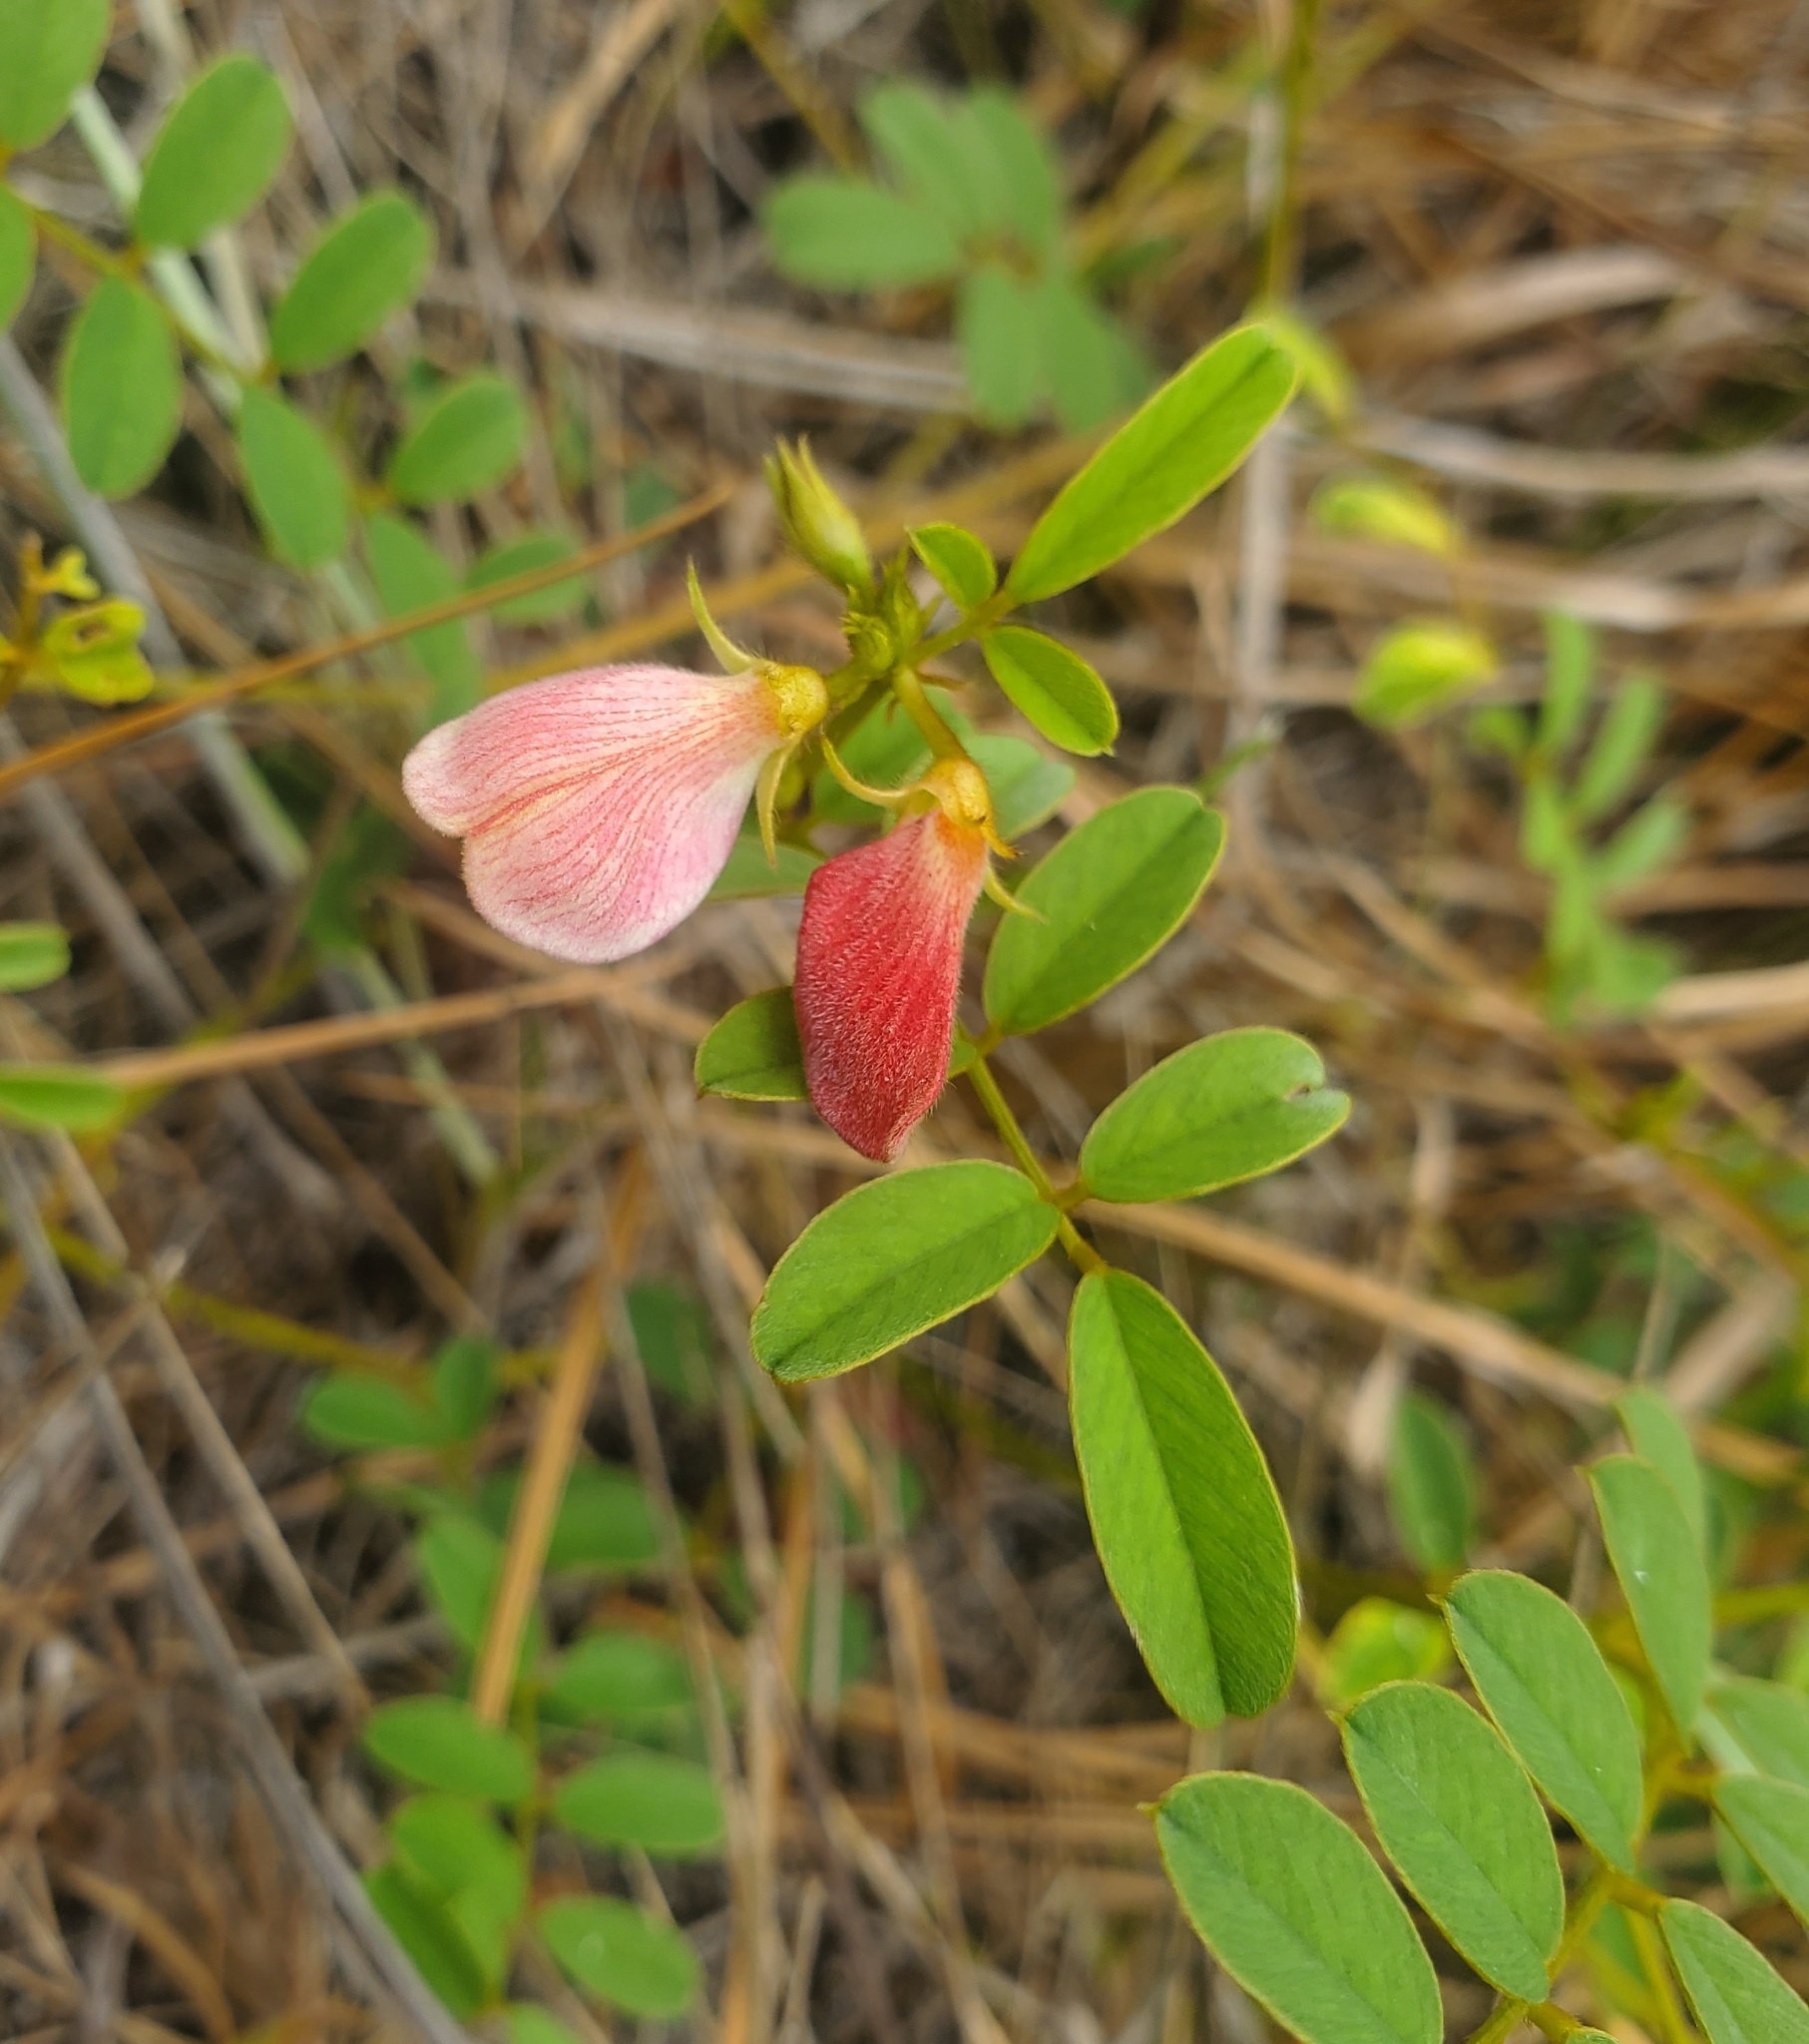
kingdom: Plantae
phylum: Tracheophyta
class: Magnoliopsida
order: Fabales
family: Fabaceae
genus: Tephrosia
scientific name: Tephrosia spicata
